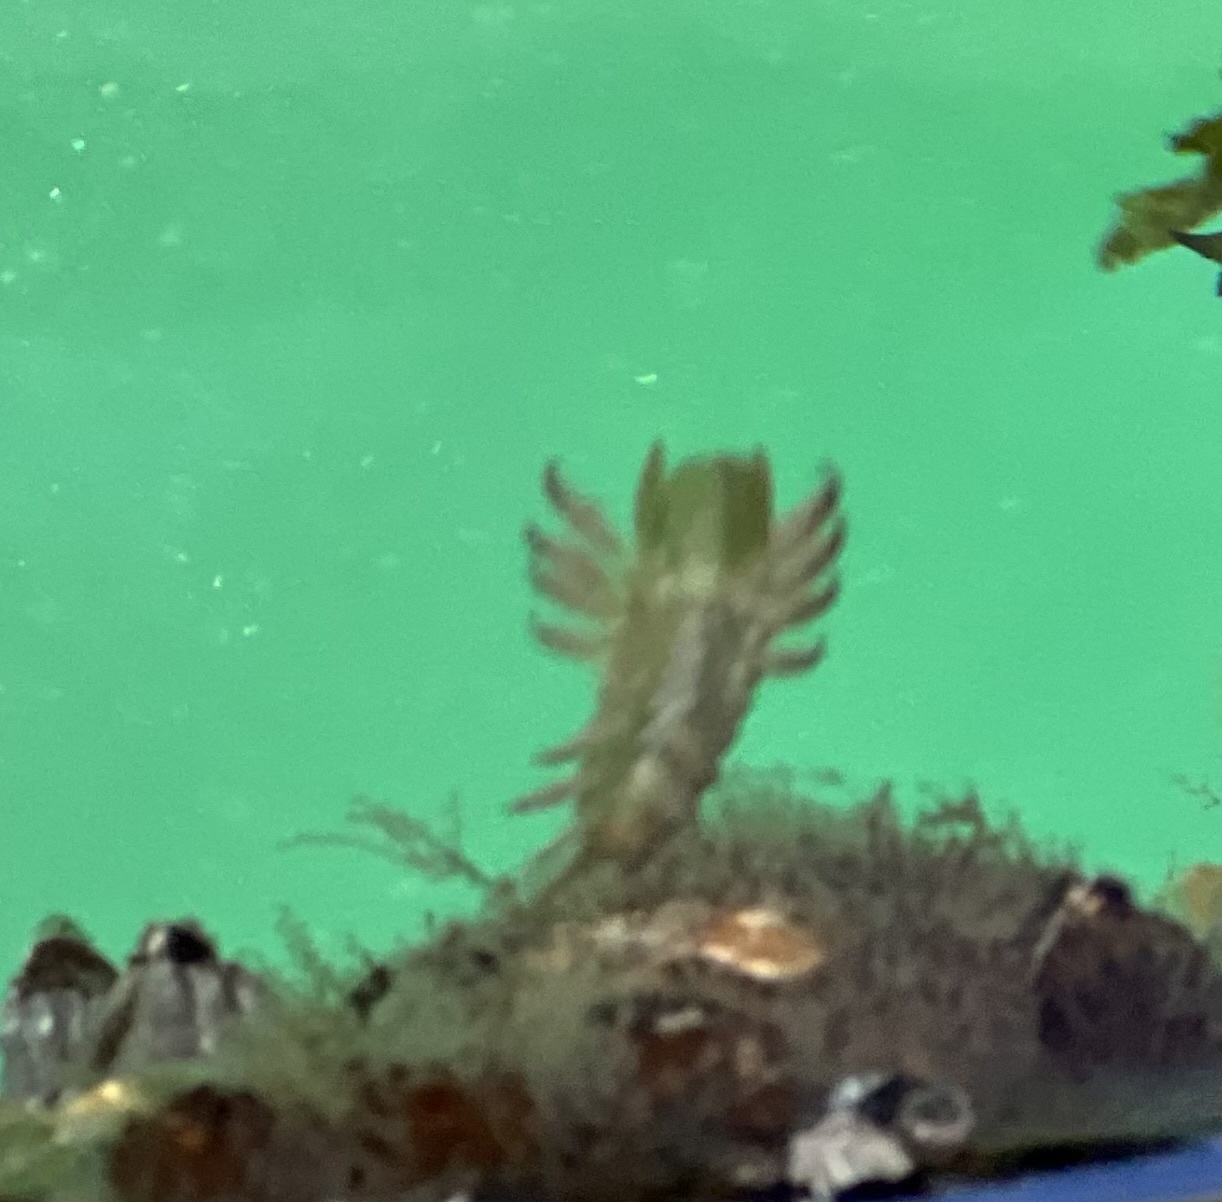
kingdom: Animalia
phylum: Arthropoda
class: Malacostraca
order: Isopoda
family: Idoteidae
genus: Pentidotea
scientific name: Pentidotea wosnesenskii
